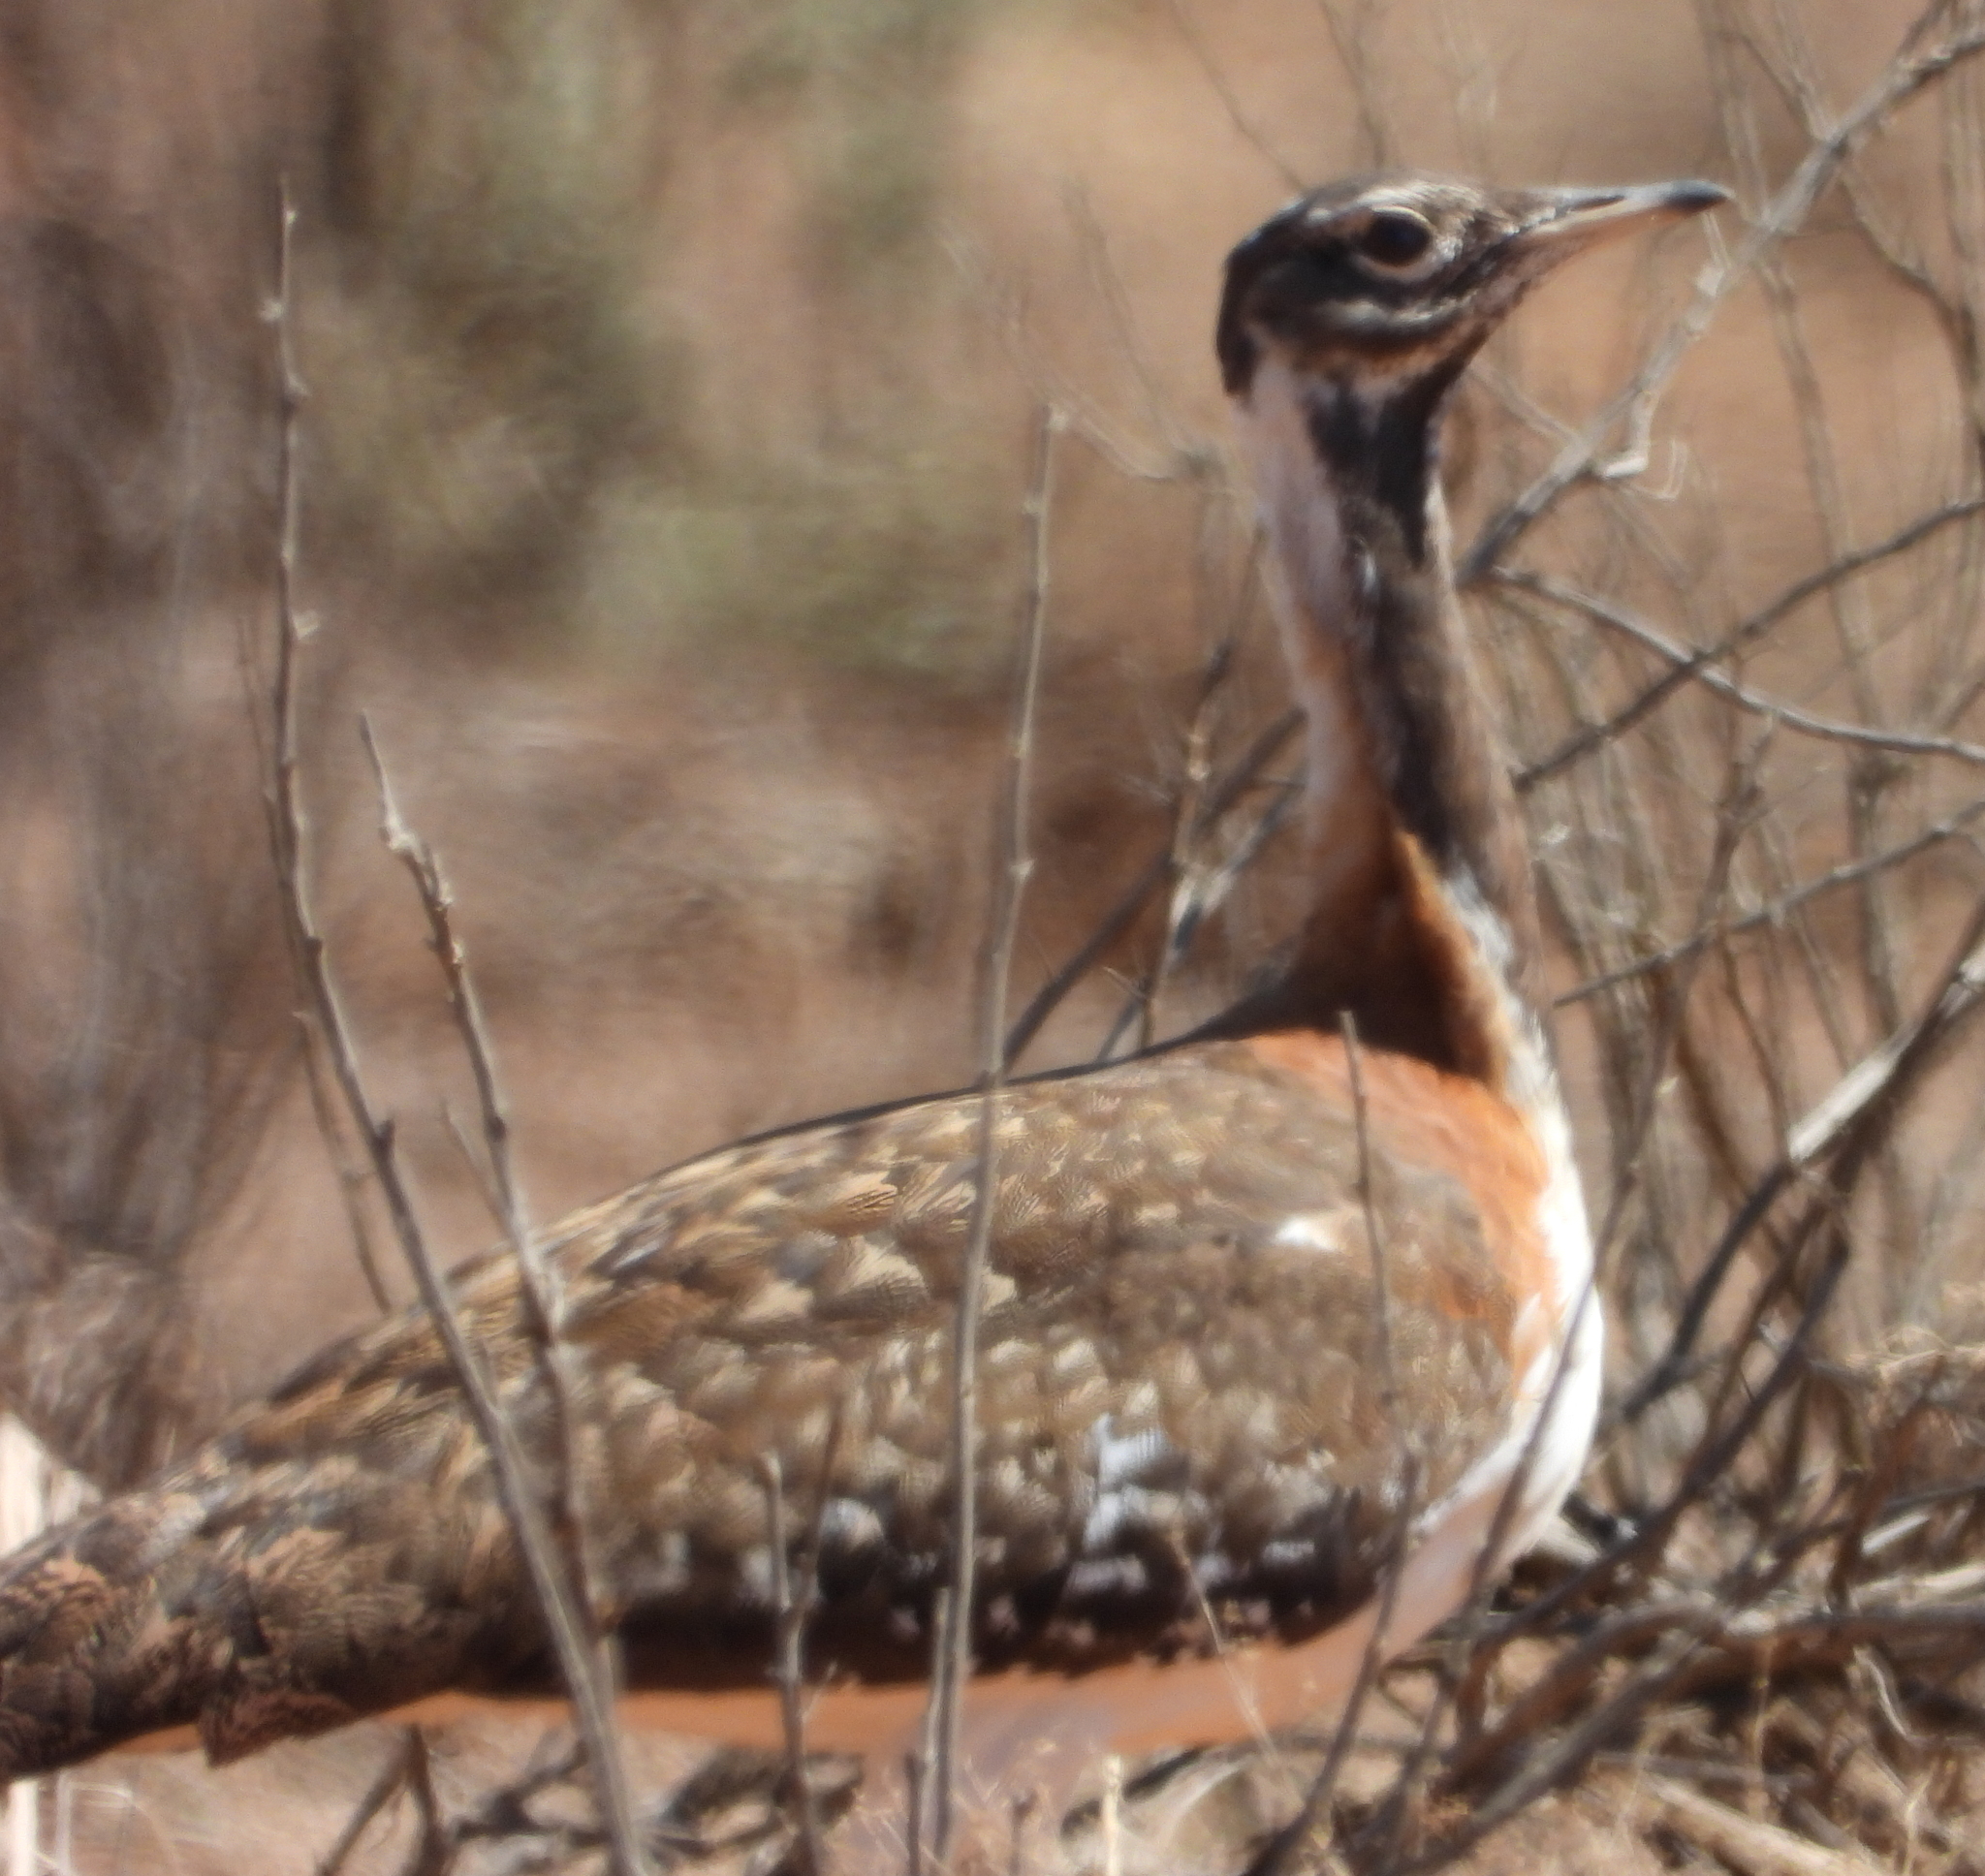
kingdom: Animalia
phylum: Chordata
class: Aves
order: Otidiformes
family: Otididae
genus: Neotis
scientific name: Neotis ludwigii
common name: Ludwig's bustard
